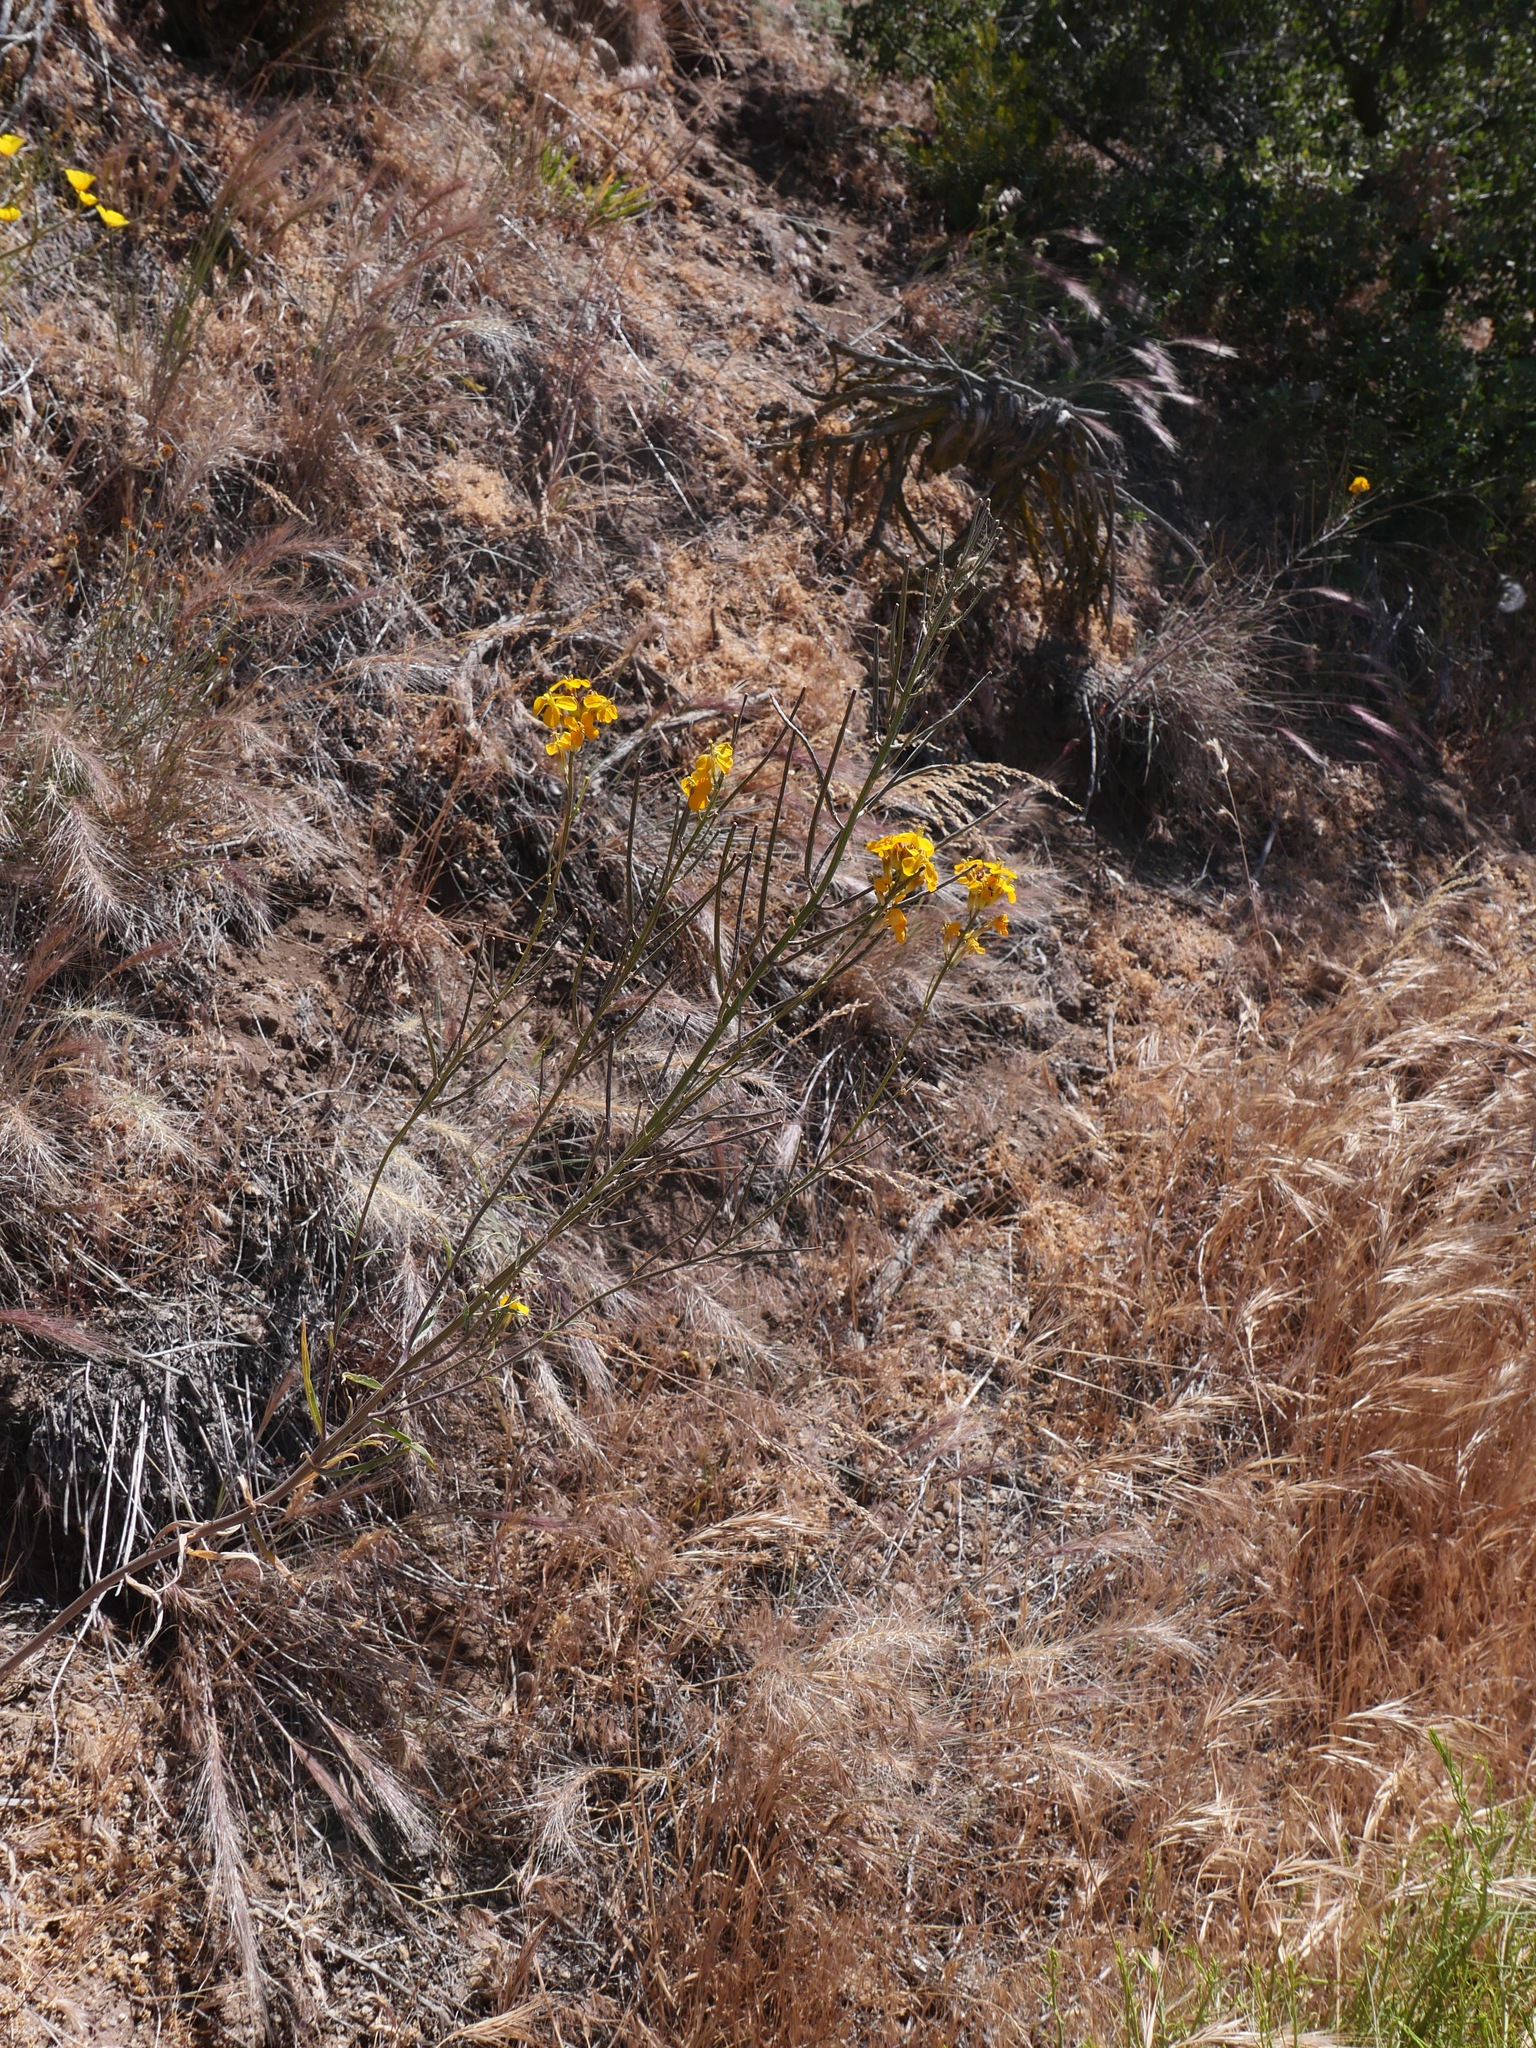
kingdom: Plantae
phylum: Tracheophyta
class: Magnoliopsida
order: Brassicales
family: Brassicaceae
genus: Erysimum
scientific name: Erysimum capitatum
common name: Western wallflower
